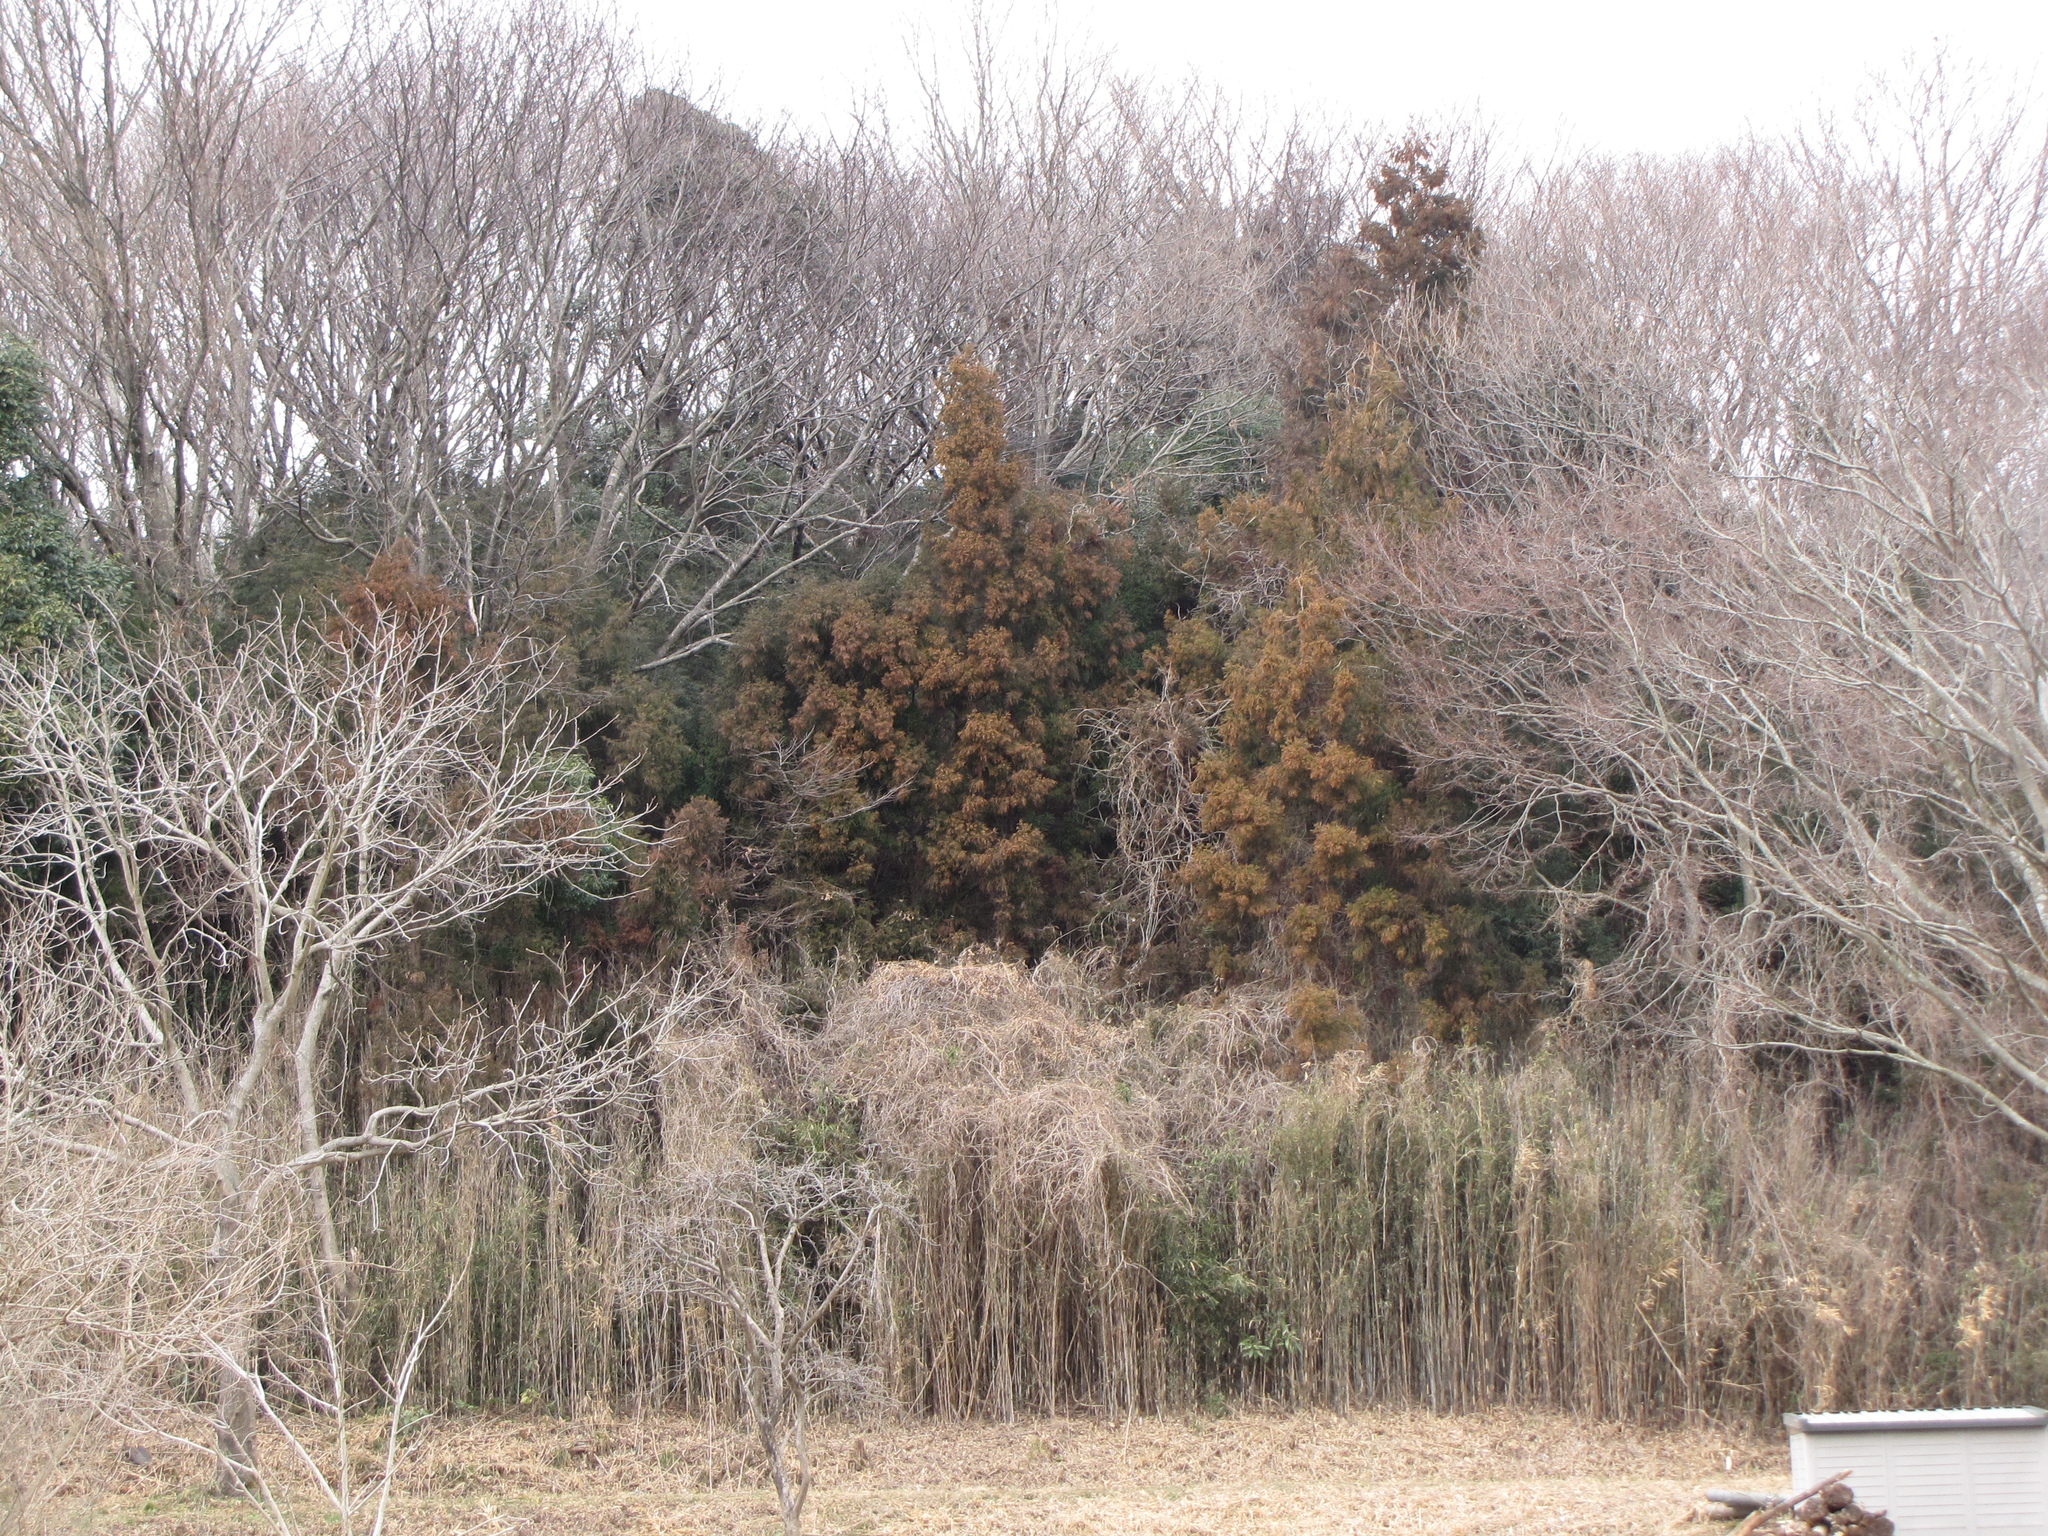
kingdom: Plantae
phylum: Tracheophyta
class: Pinopsida
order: Pinales
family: Cupressaceae
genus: Cryptomeria
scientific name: Cryptomeria japonica
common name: Japanese cedar
